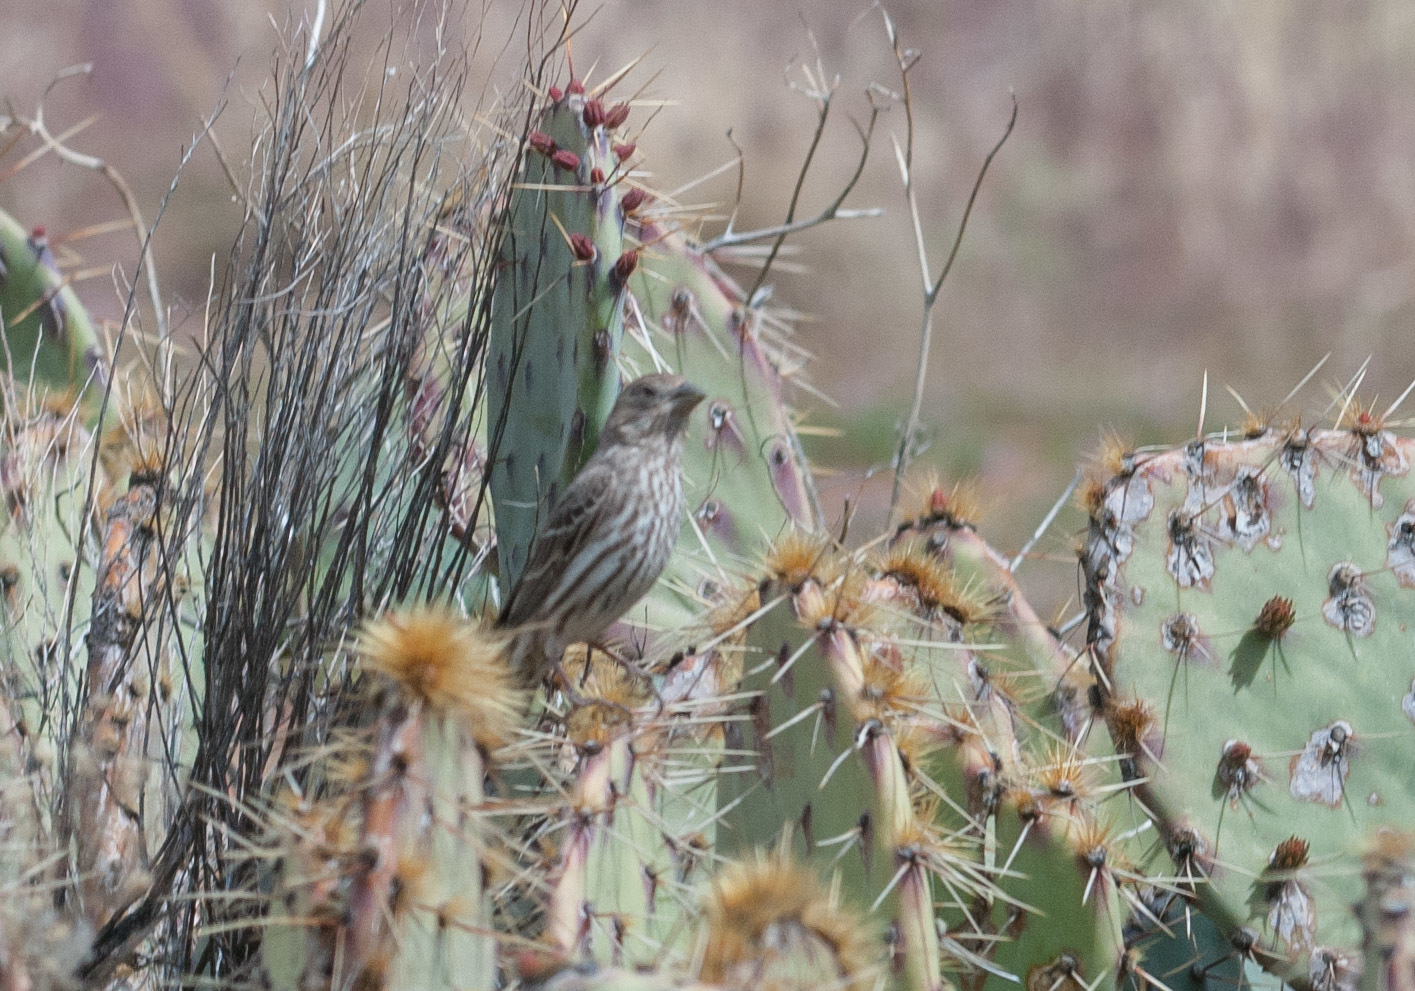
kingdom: Animalia
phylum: Chordata
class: Aves
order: Passeriformes
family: Fringillidae
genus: Haemorhous
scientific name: Haemorhous mexicanus
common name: House finch
